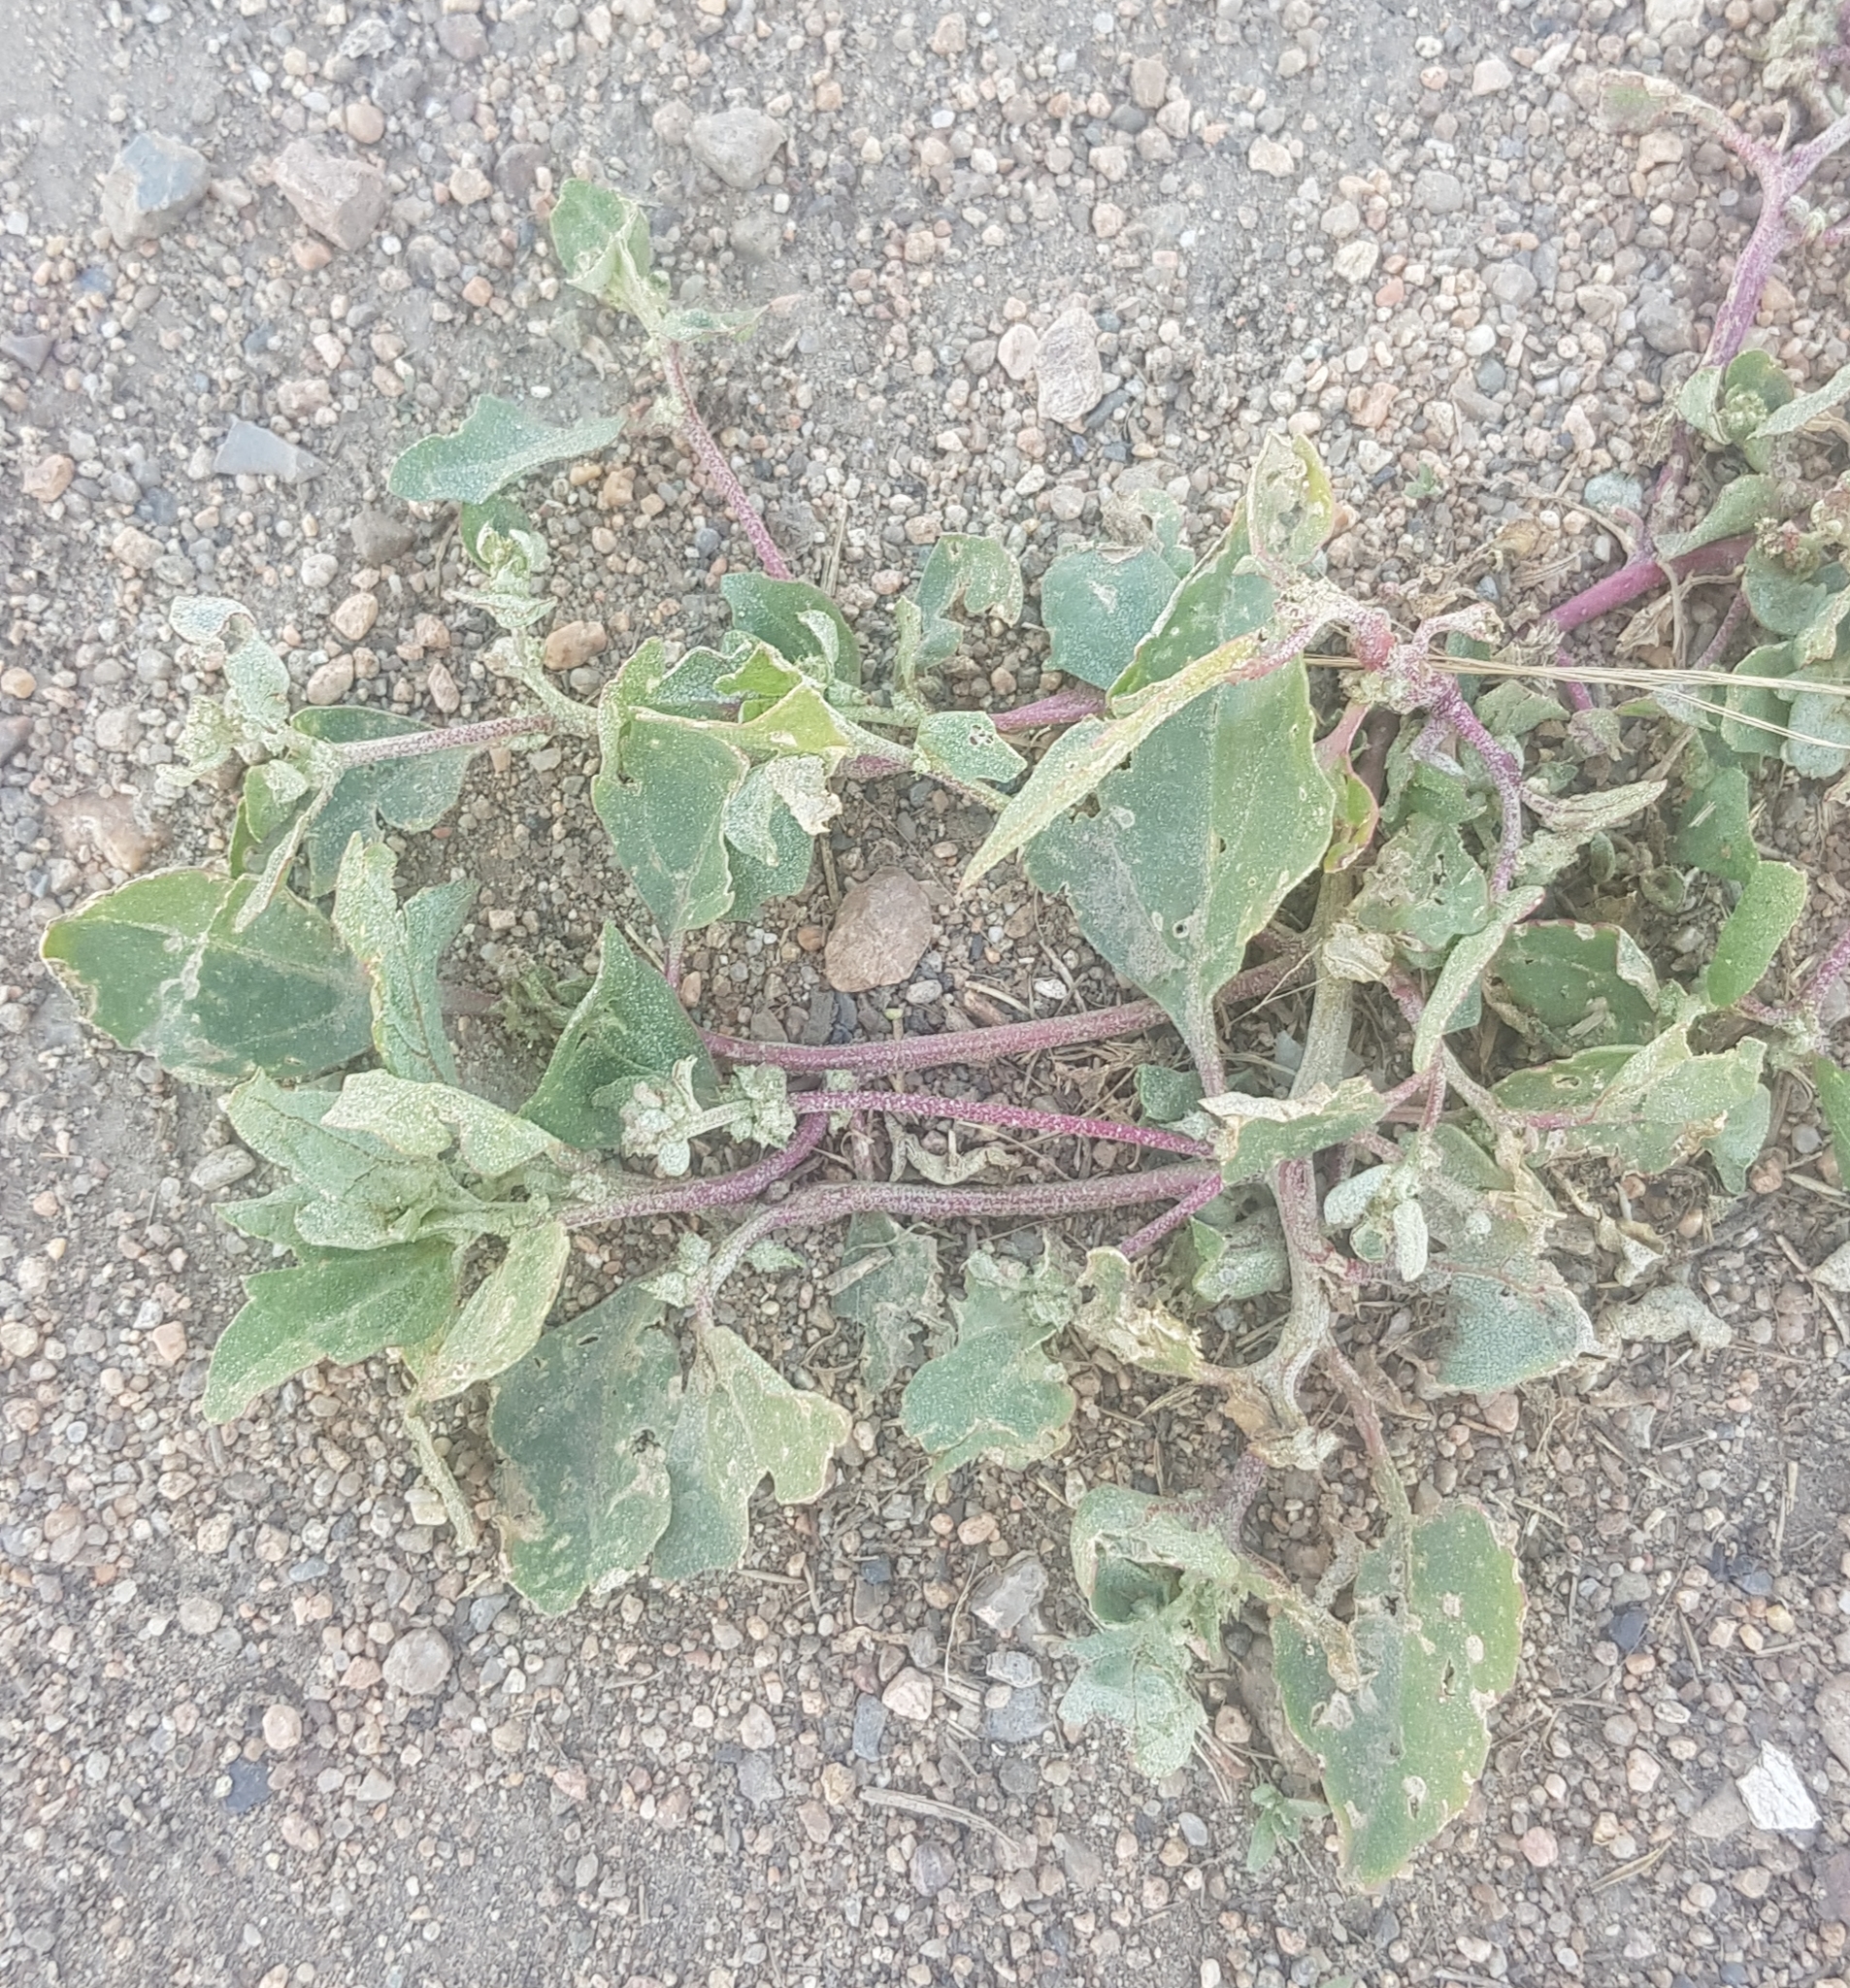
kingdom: Plantae
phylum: Tracheophyta
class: Magnoliopsida
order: Caryophyllales
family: Amaranthaceae
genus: Atriplex
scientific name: Atriplex sibirica
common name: Siberian saltbush
